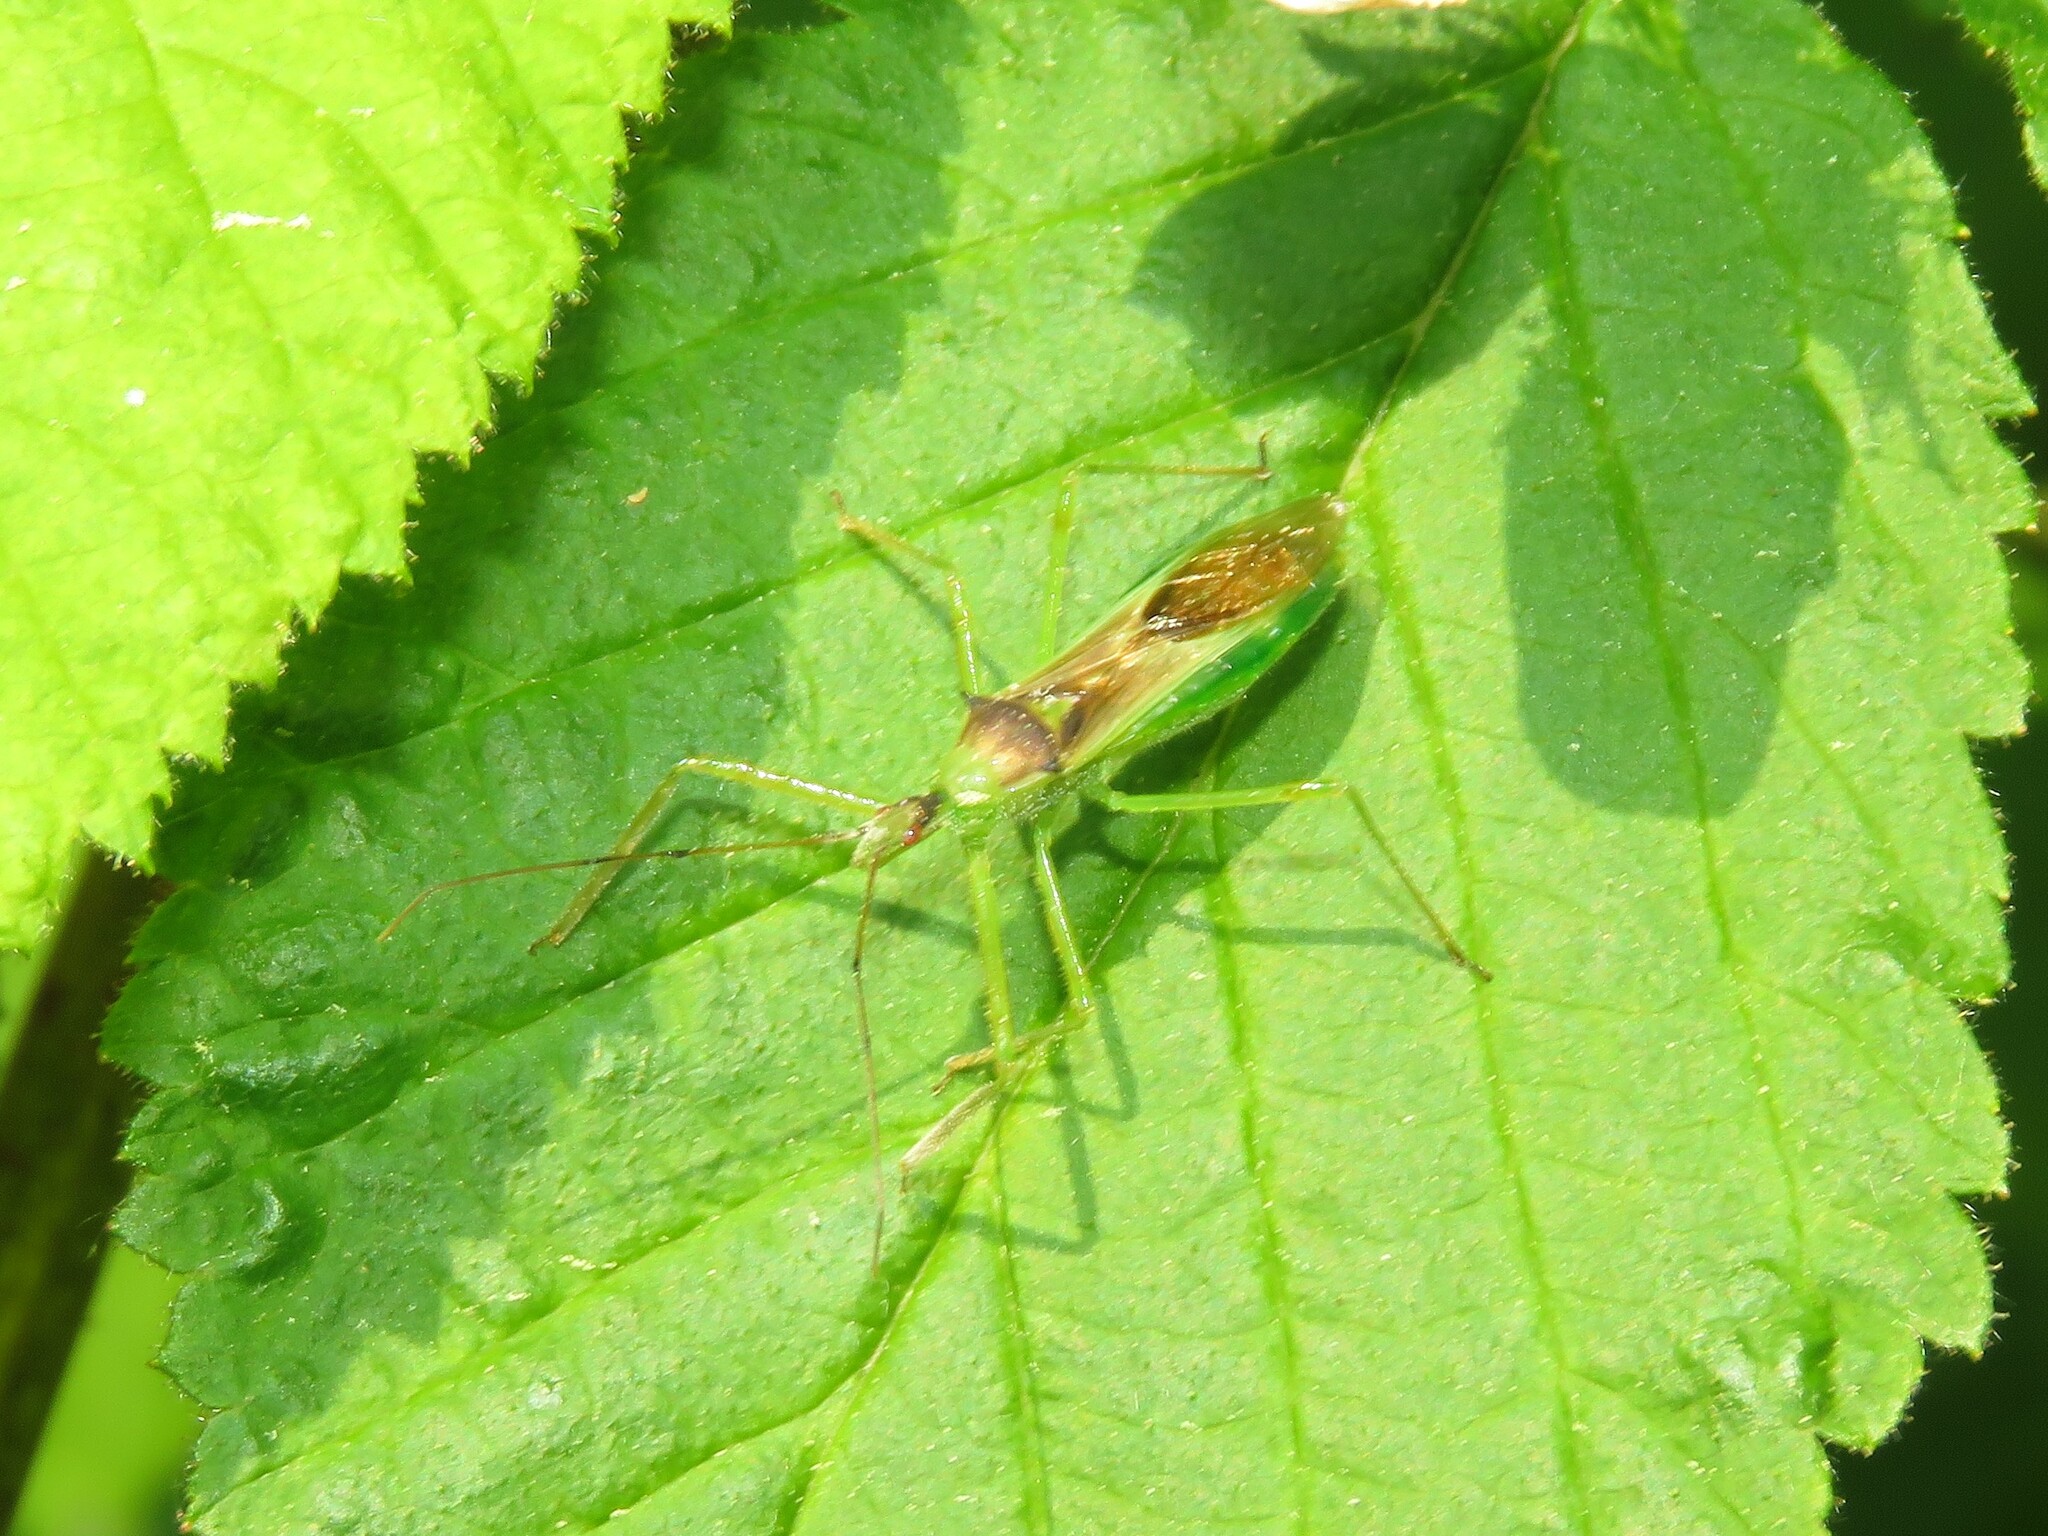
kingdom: Animalia
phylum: Arthropoda
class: Insecta
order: Hemiptera
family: Reduviidae
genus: Zelus
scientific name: Zelus luridus
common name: Pale green assassin bug
